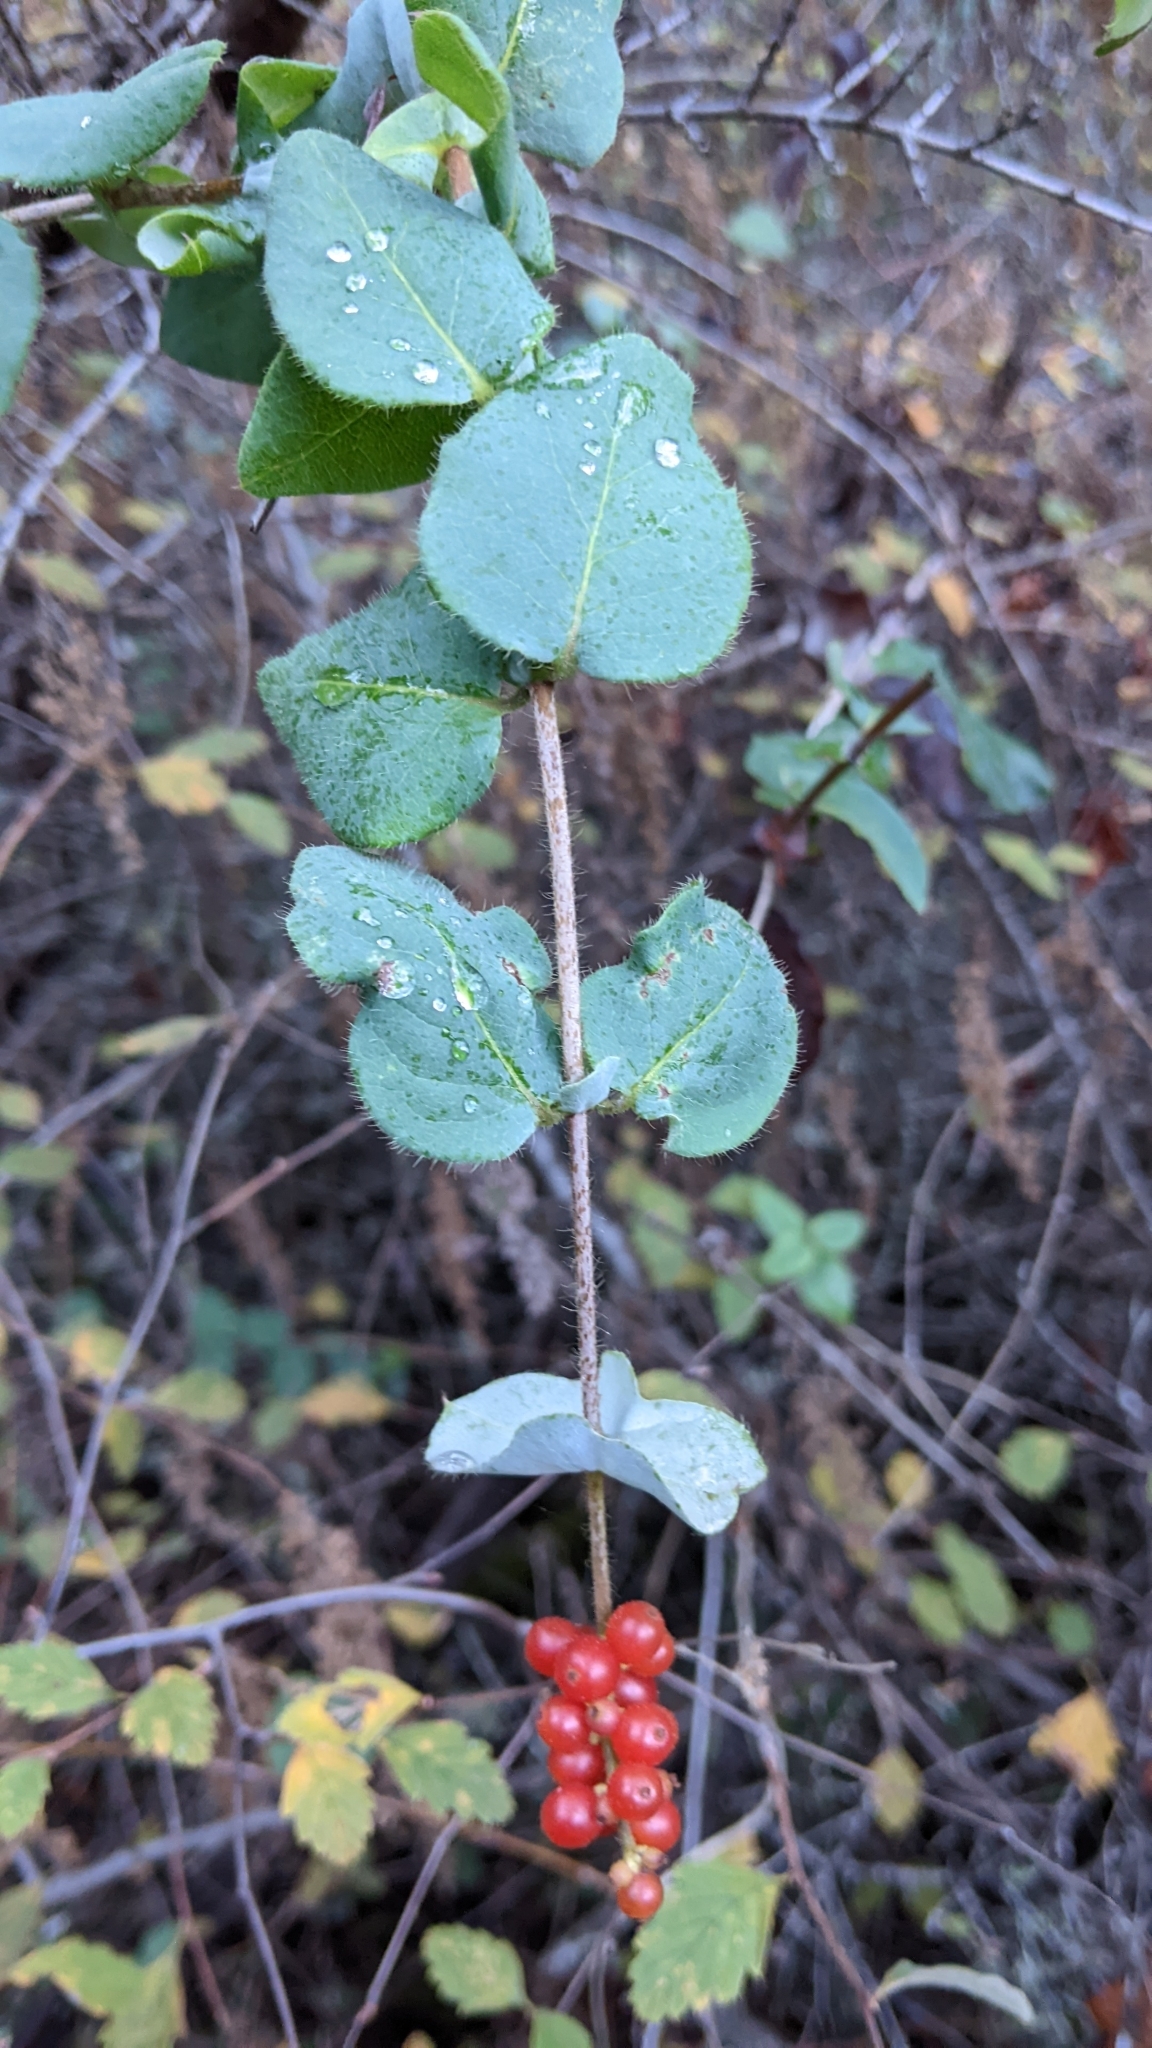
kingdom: Plantae
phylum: Tracheophyta
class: Magnoliopsida
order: Dipsacales
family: Caprifoliaceae
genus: Lonicera
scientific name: Lonicera hispidula
